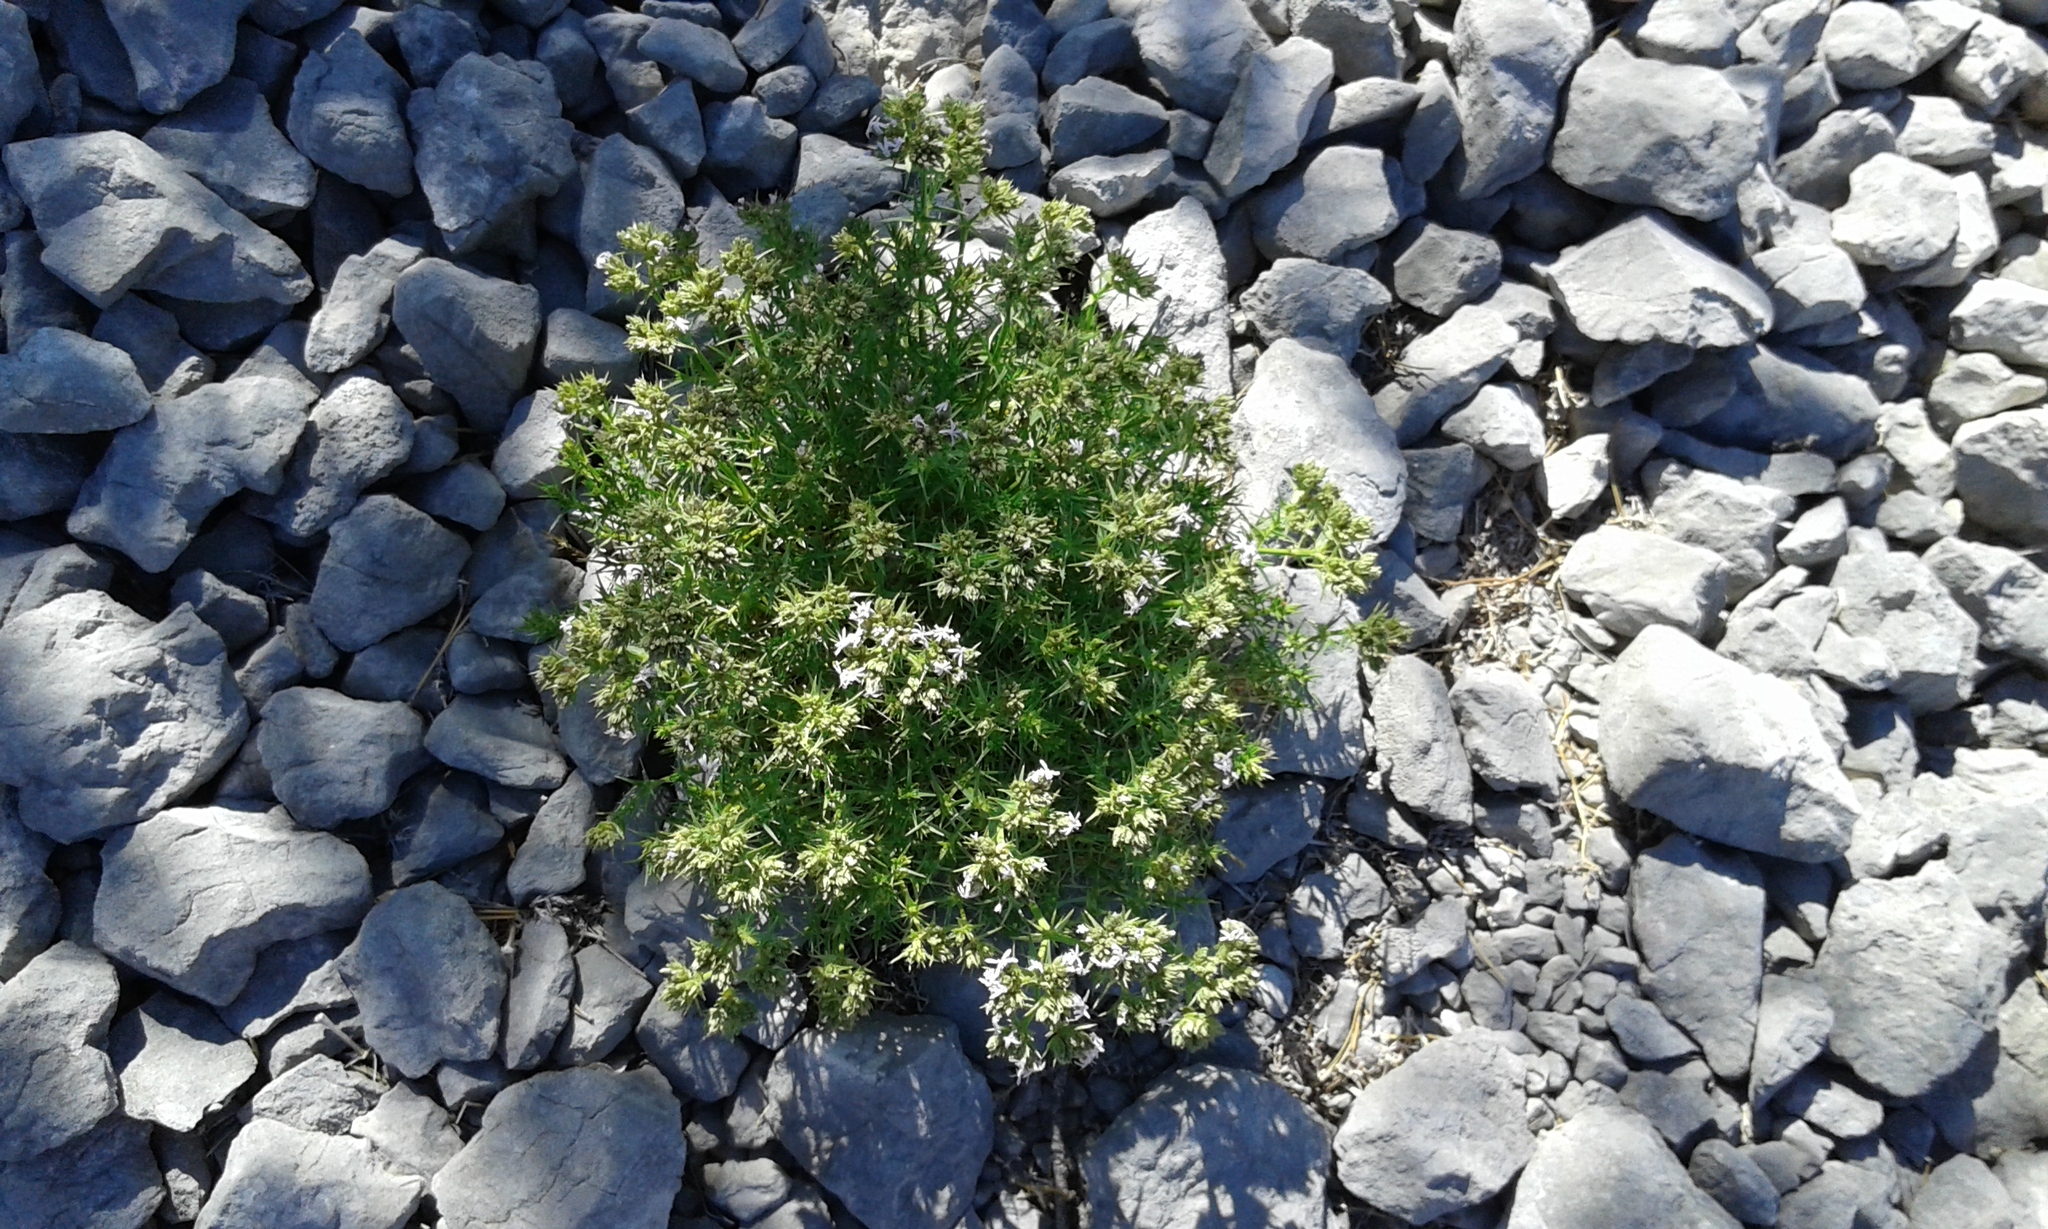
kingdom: Plantae
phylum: Tracheophyta
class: Magnoliopsida
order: Caryophyllales
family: Caryophyllaceae
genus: Drypis
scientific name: Drypis spinosa
